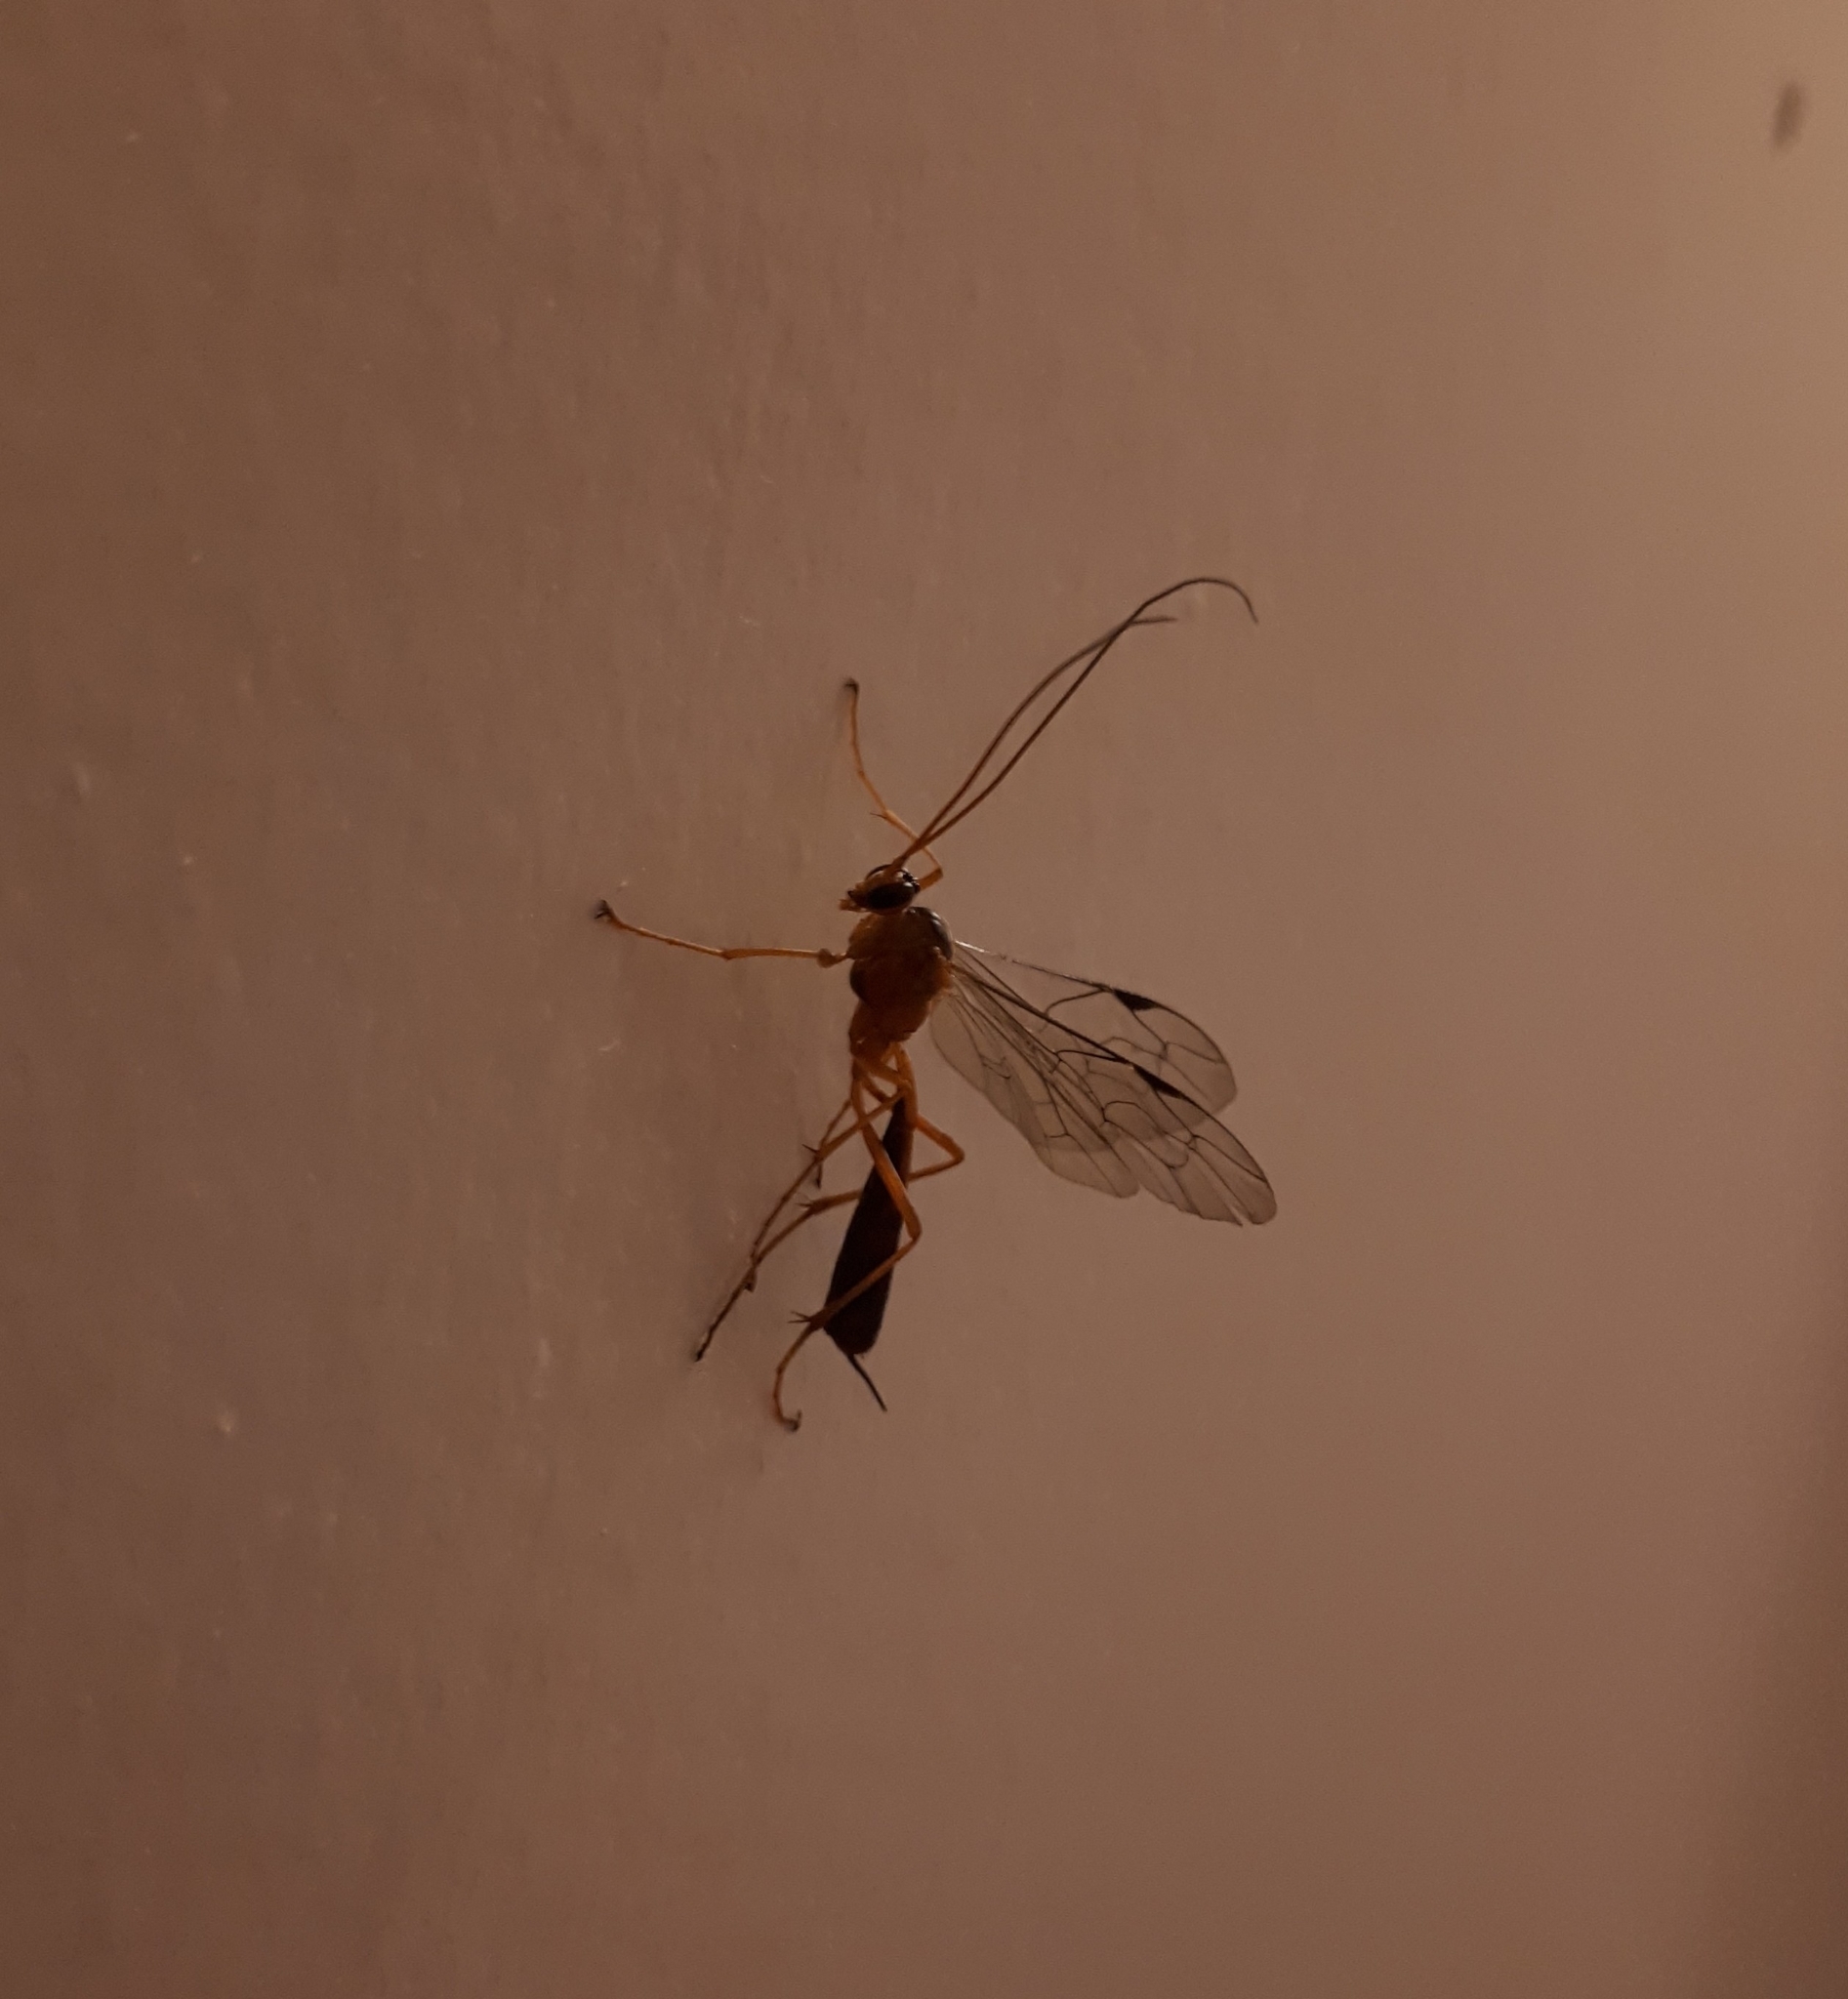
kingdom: Animalia
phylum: Arthropoda
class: Insecta
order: Hymenoptera
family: Ichneumonidae
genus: Netelia
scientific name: Netelia ephippiata
